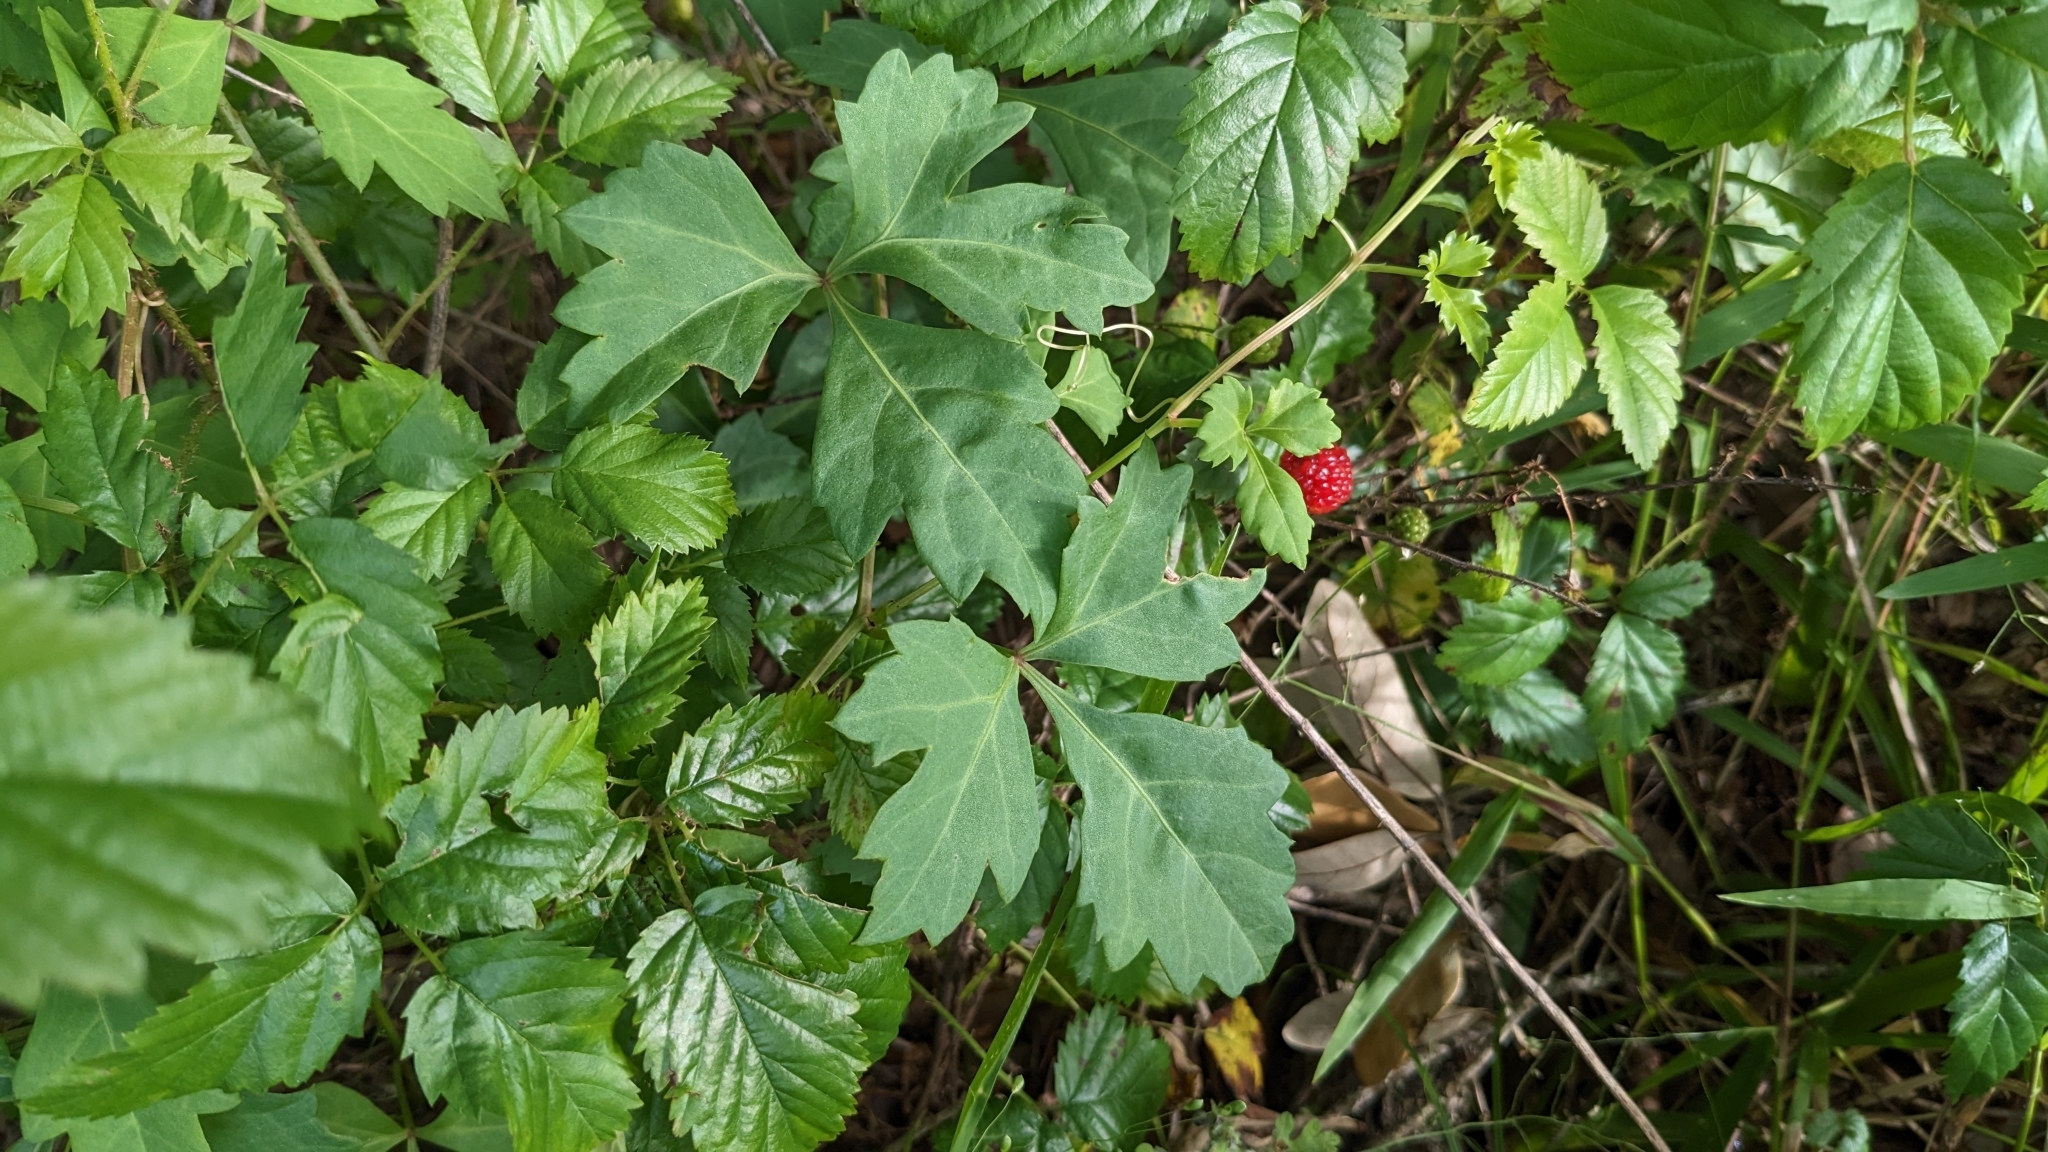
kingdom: Plantae
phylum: Tracheophyta
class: Magnoliopsida
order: Vitales
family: Vitaceae
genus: Cissus
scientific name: Cissus trifoliata
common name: Vine-sorrel
